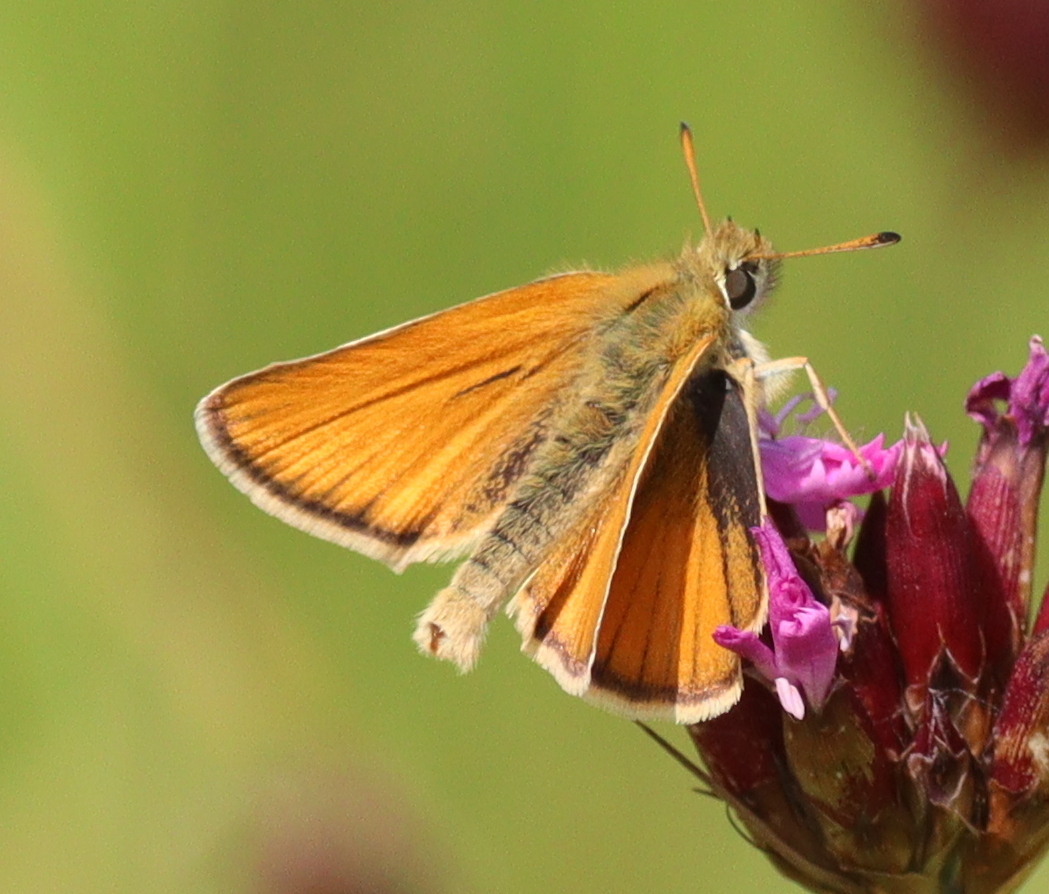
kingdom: Animalia
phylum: Arthropoda
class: Insecta
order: Lepidoptera
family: Hesperiidae
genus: Thymelicus
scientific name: Thymelicus lineola
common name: Essex skipper
